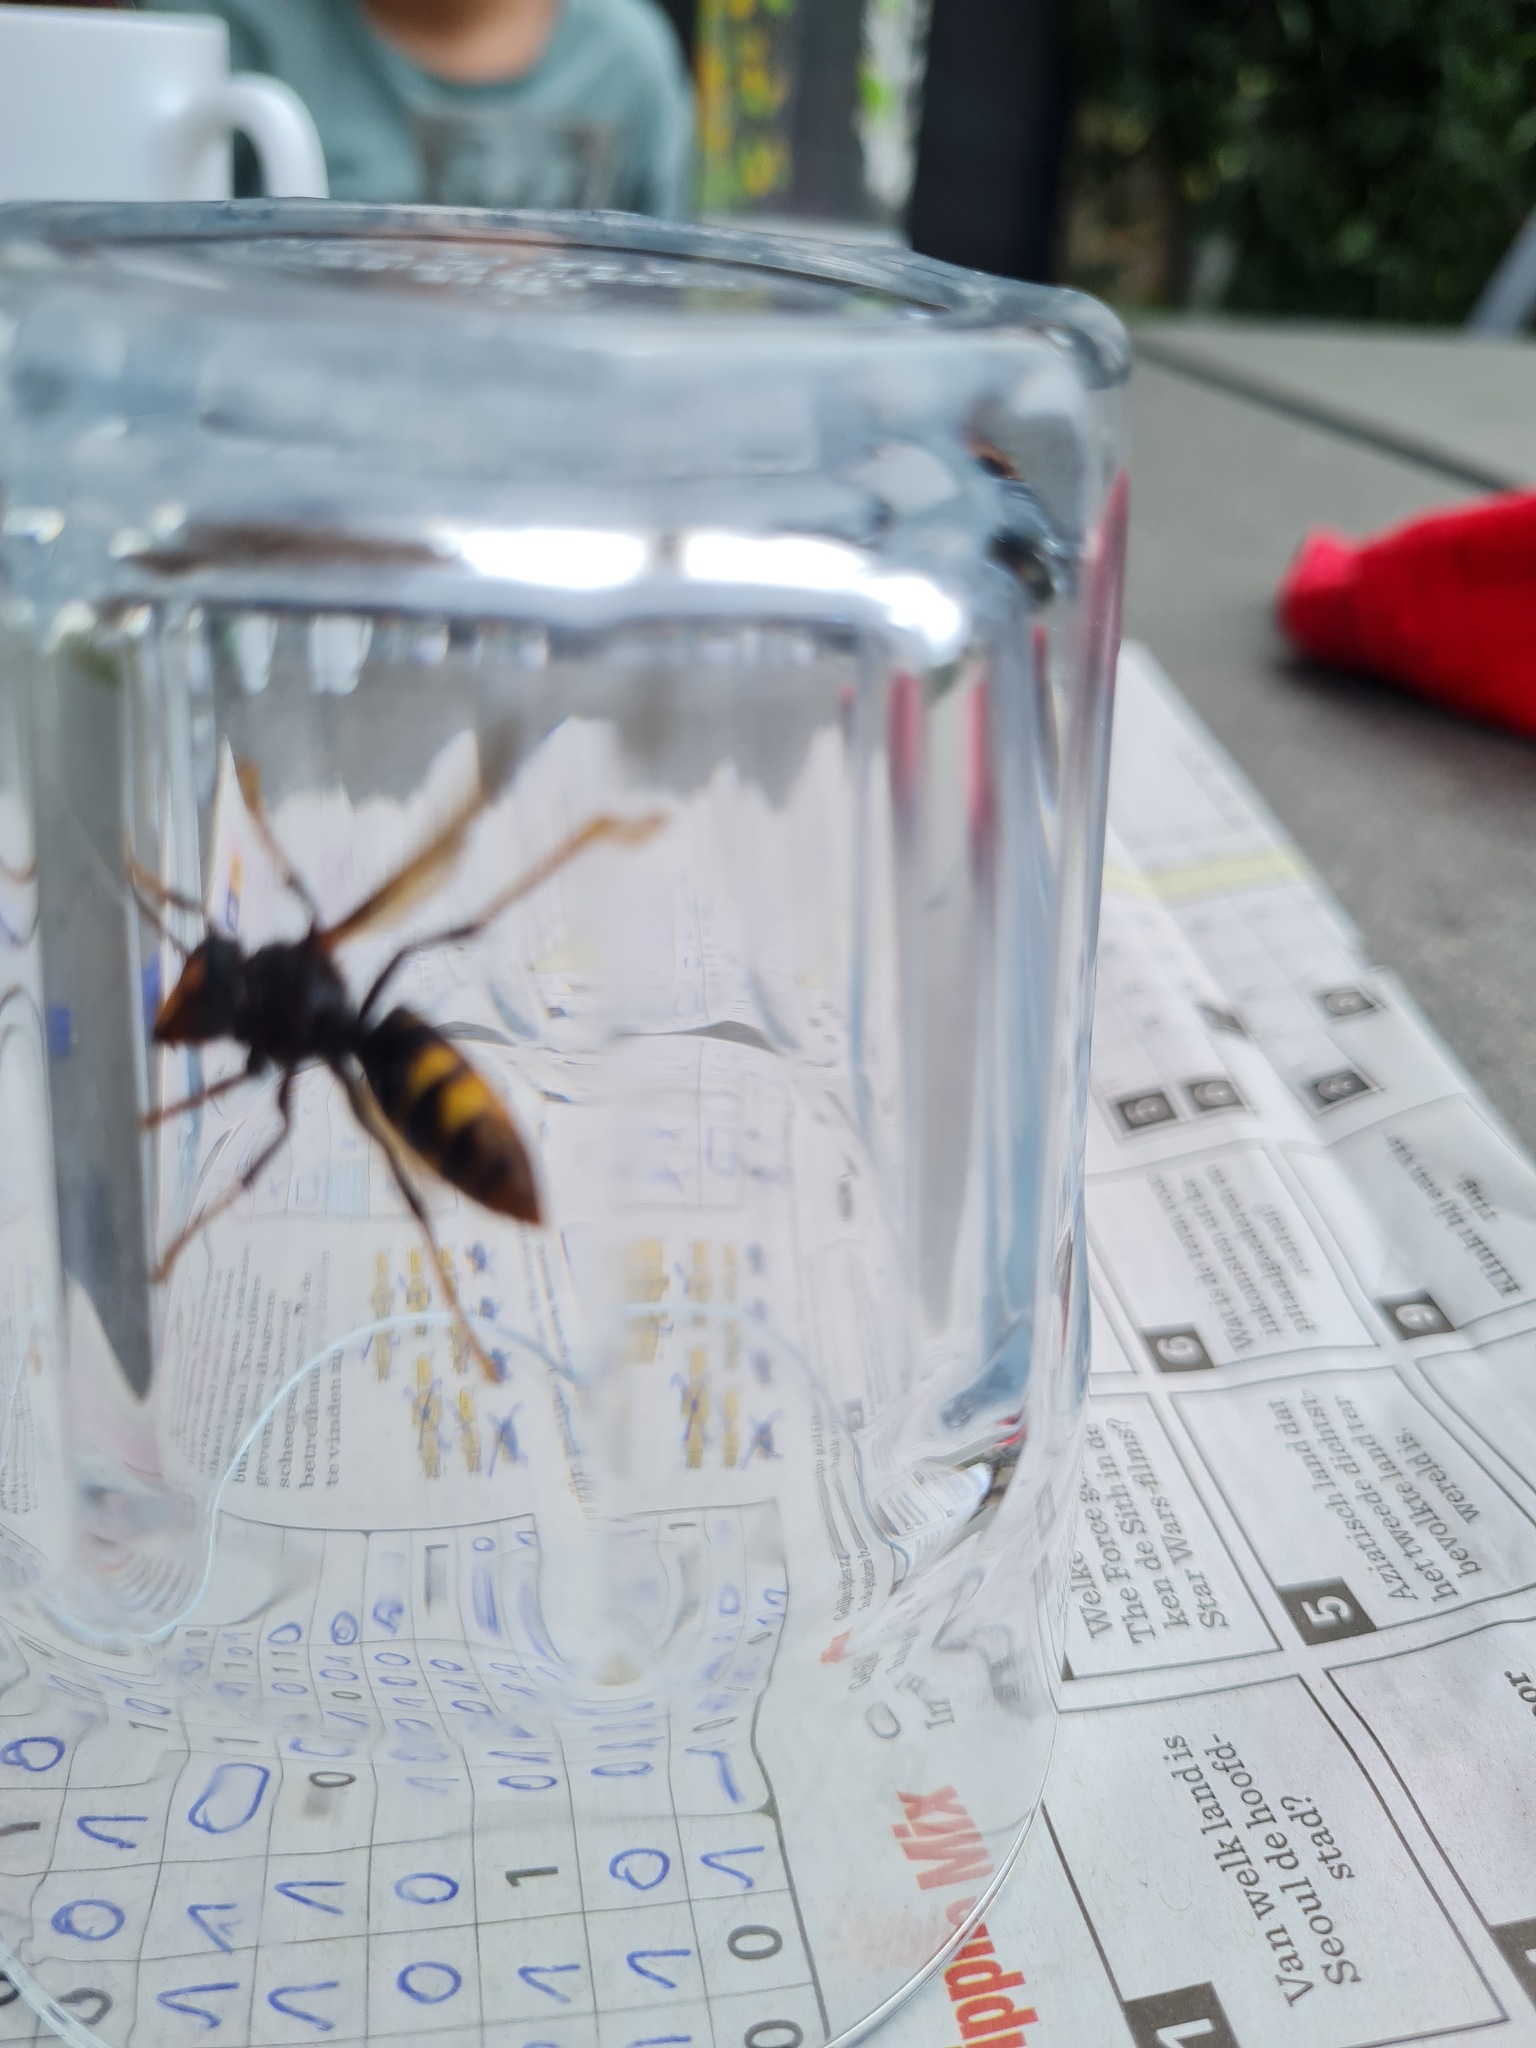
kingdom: Animalia
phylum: Arthropoda
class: Insecta
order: Hymenoptera
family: Vespidae
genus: Vespa
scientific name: Vespa velutina
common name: Asian hornet
